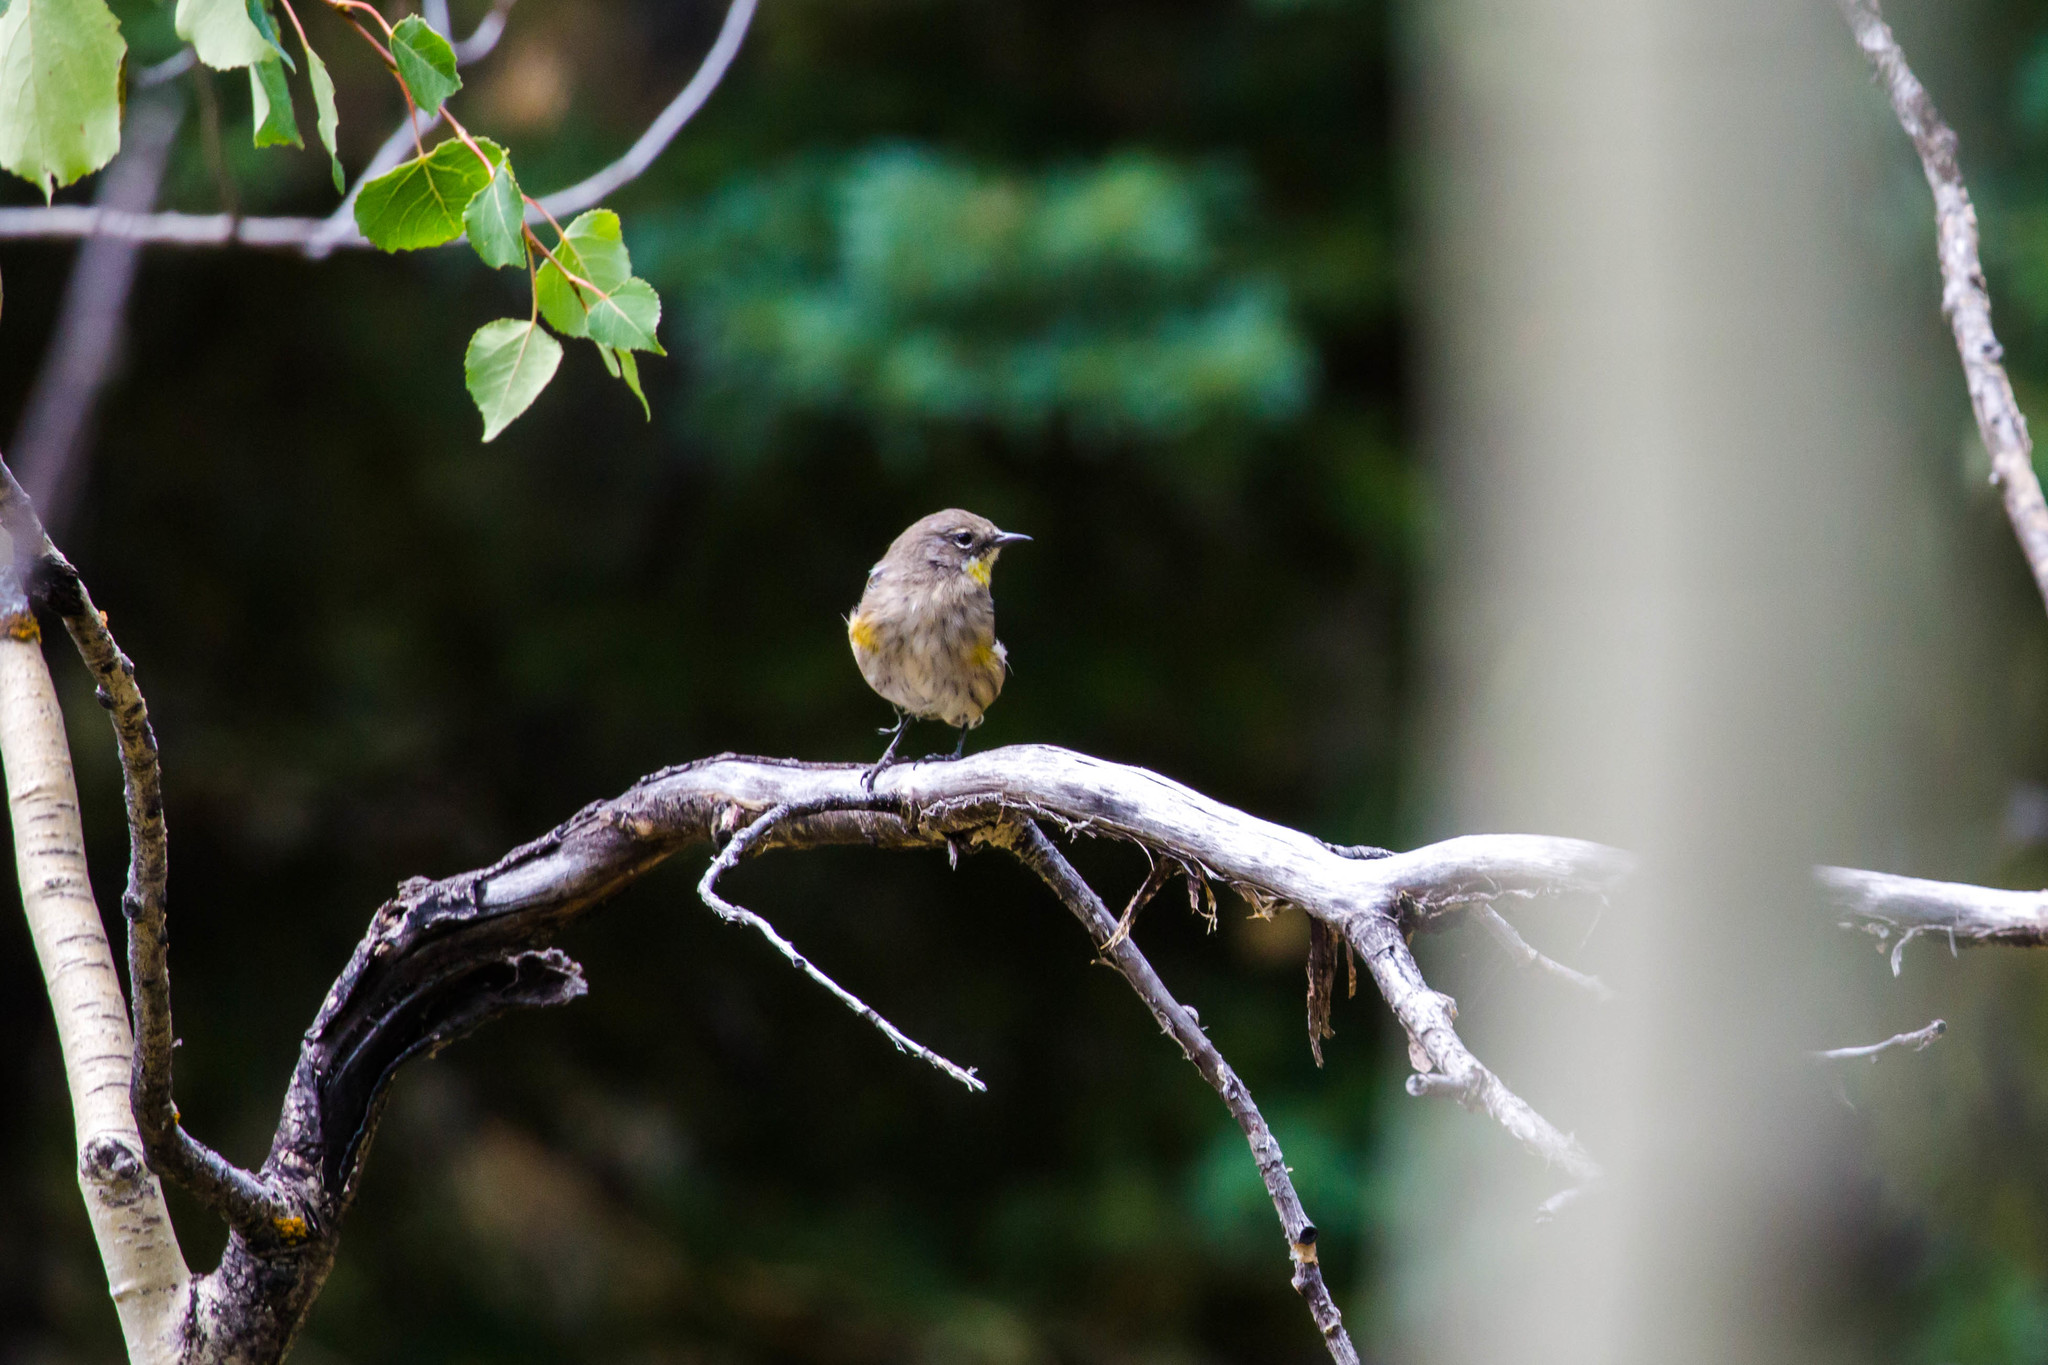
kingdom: Animalia
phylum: Chordata
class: Aves
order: Passeriformes
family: Parulidae
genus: Setophaga
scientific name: Setophaga coronata
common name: Myrtle warbler
